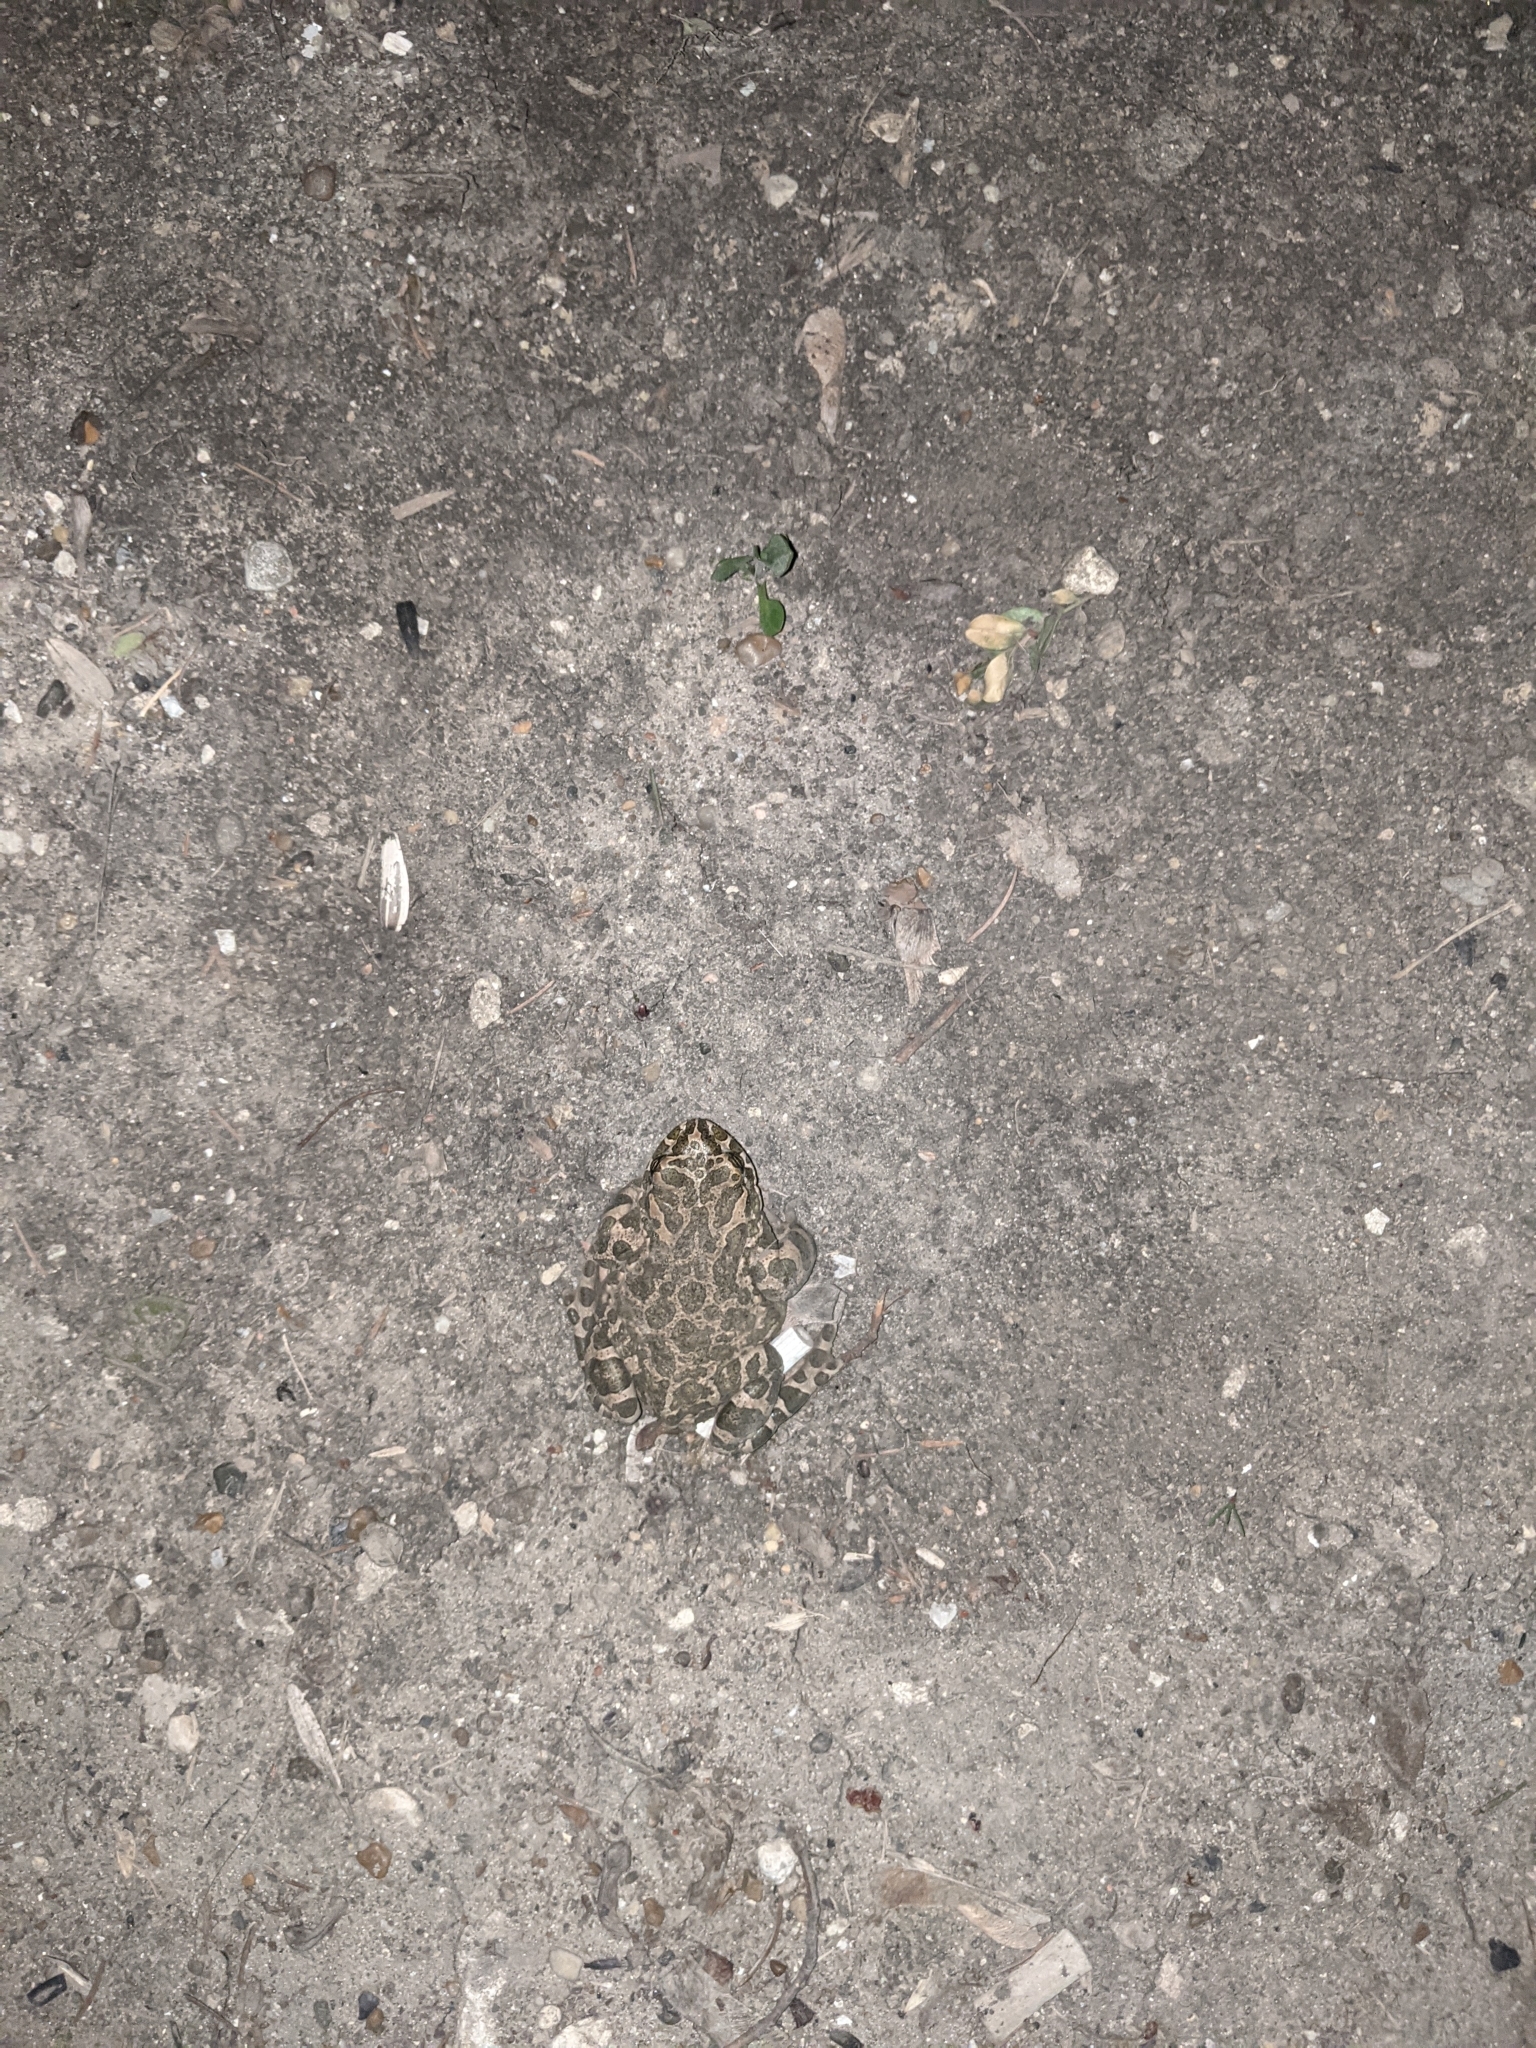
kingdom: Animalia
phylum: Chordata
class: Amphibia
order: Anura
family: Bufonidae
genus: Bufotes
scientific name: Bufotes viridis
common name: European green toad
